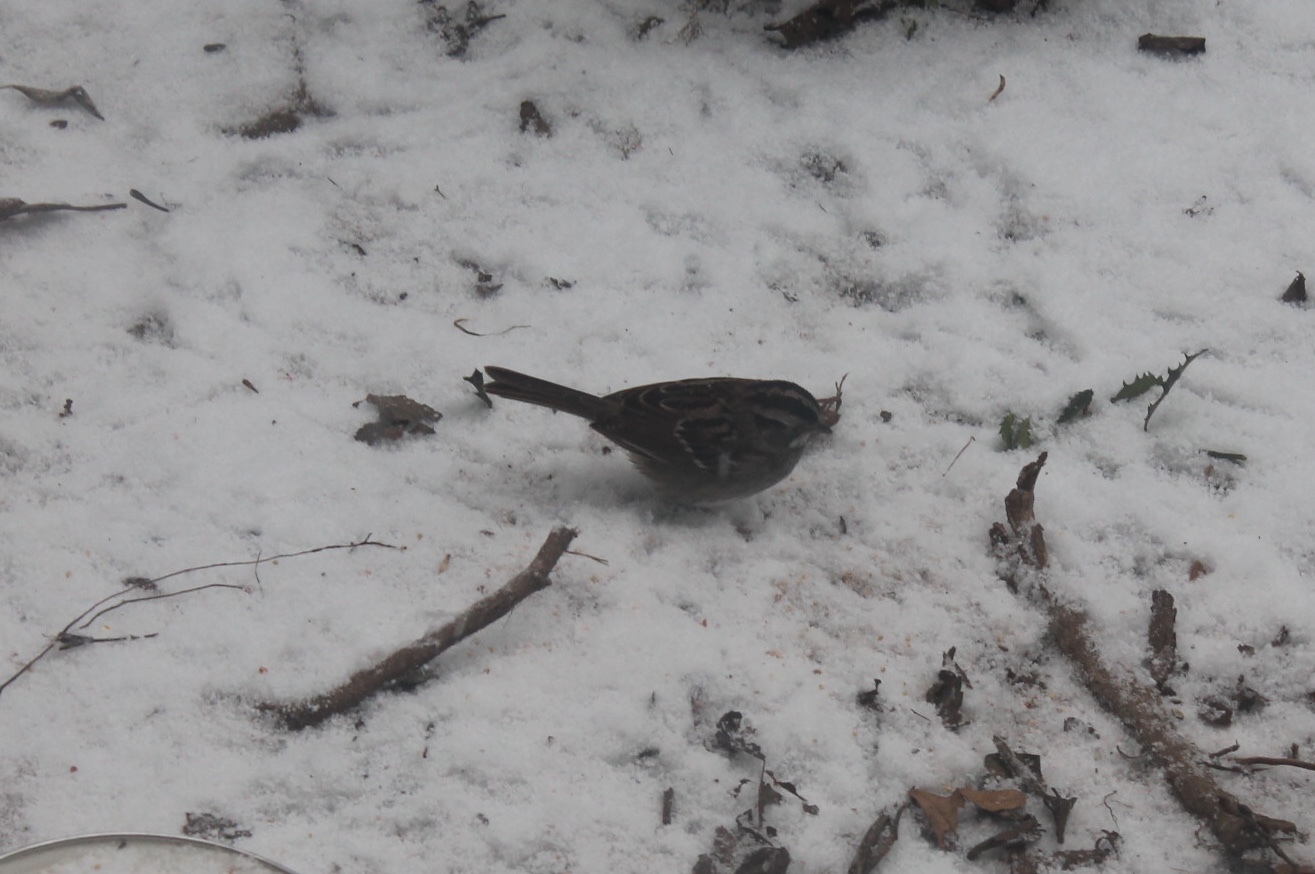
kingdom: Animalia
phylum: Chordata
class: Aves
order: Passeriformes
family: Passerellidae
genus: Zonotrichia
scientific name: Zonotrichia albicollis
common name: White-throated sparrow
